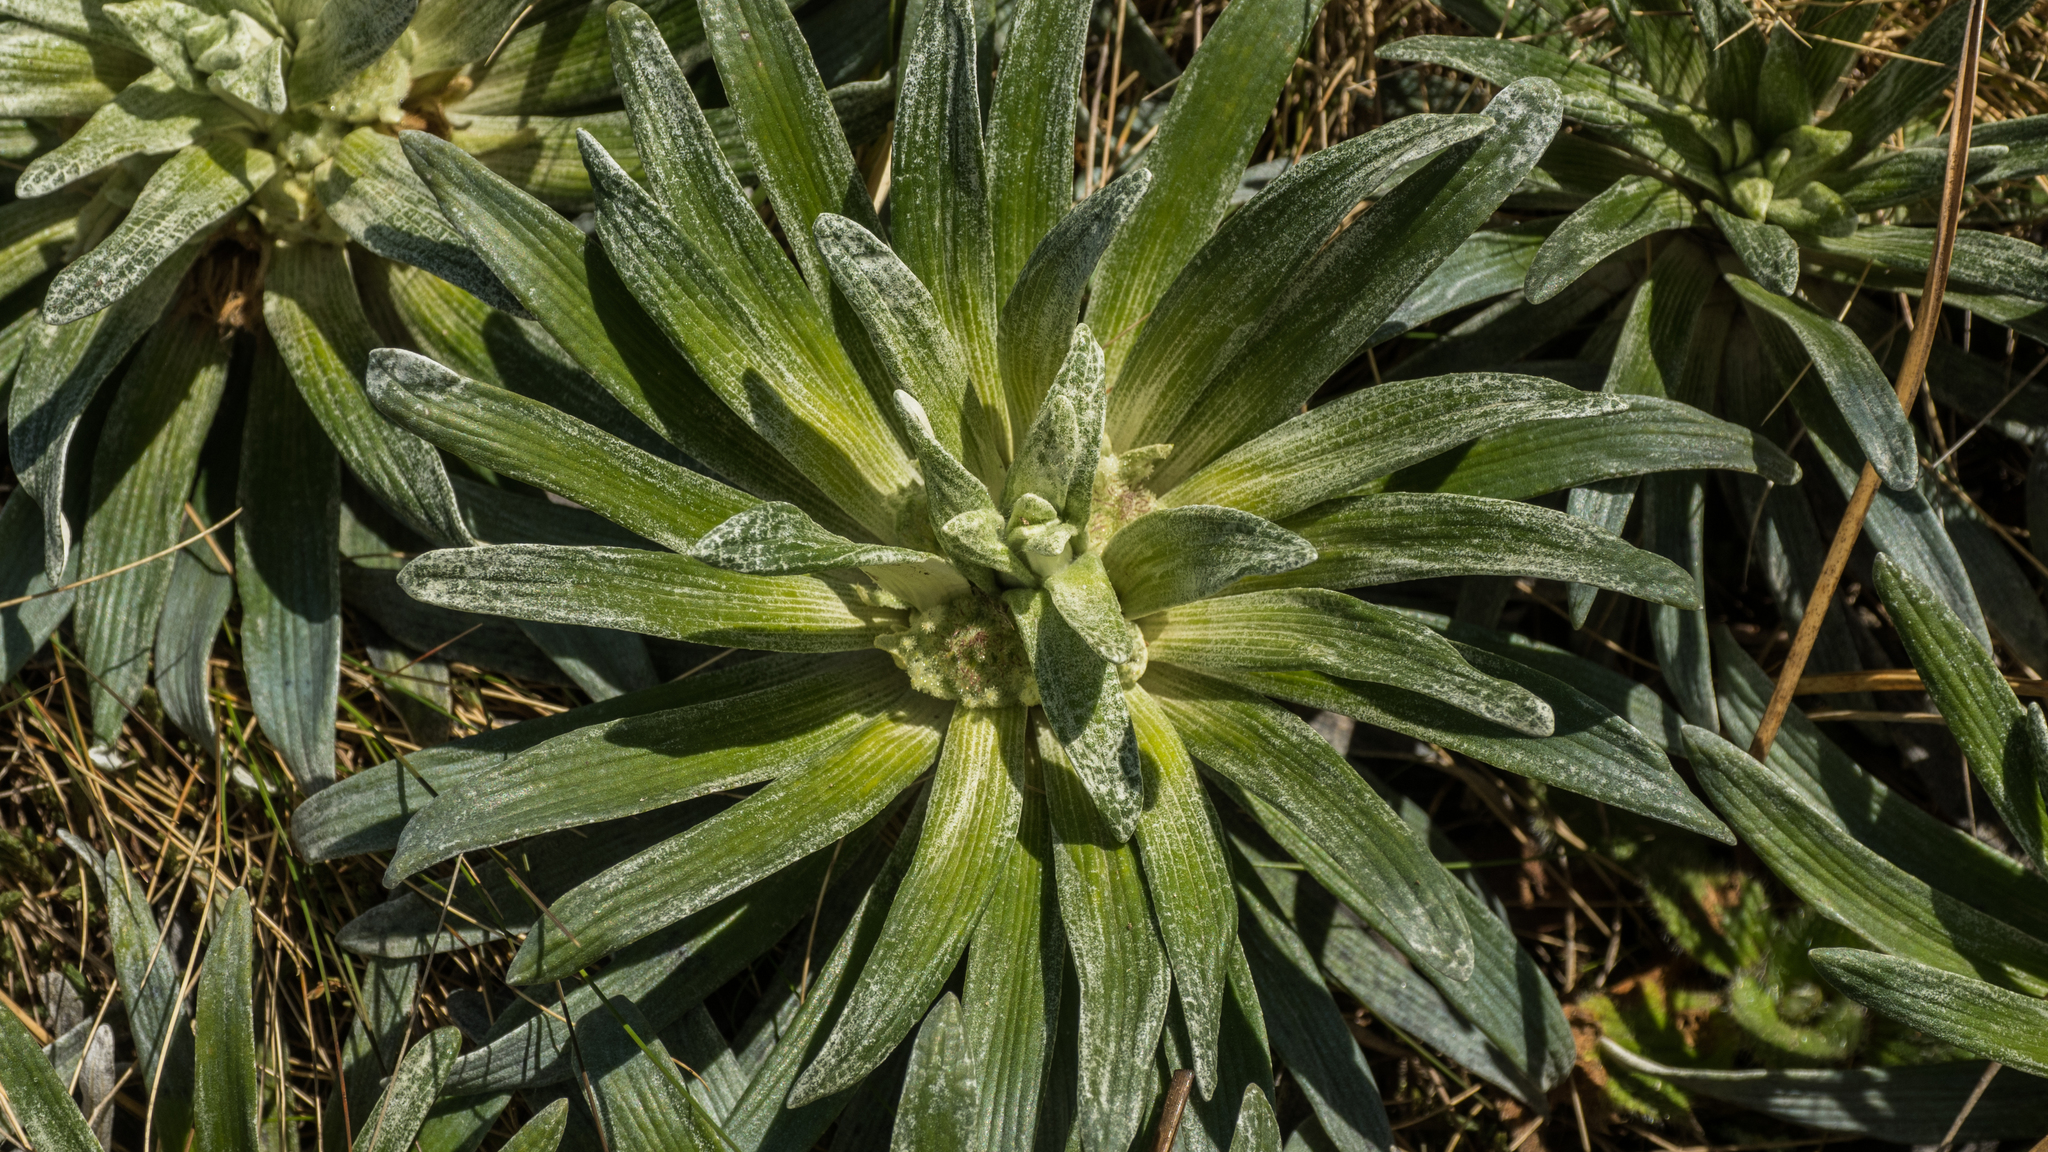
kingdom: Plantae
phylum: Tracheophyta
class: Magnoliopsida
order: Asterales
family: Asteraceae
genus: Celmisia
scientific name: Celmisia viscosa
